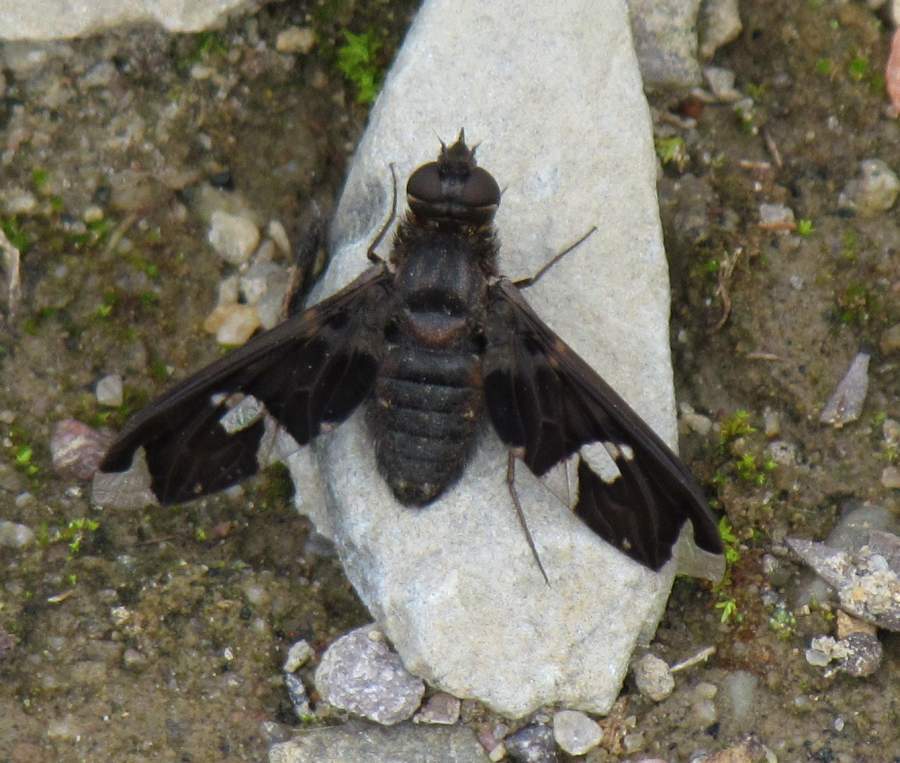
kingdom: Animalia
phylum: Arthropoda
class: Insecta
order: Diptera
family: Bombyliidae
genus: Exoprosopa
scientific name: Exoprosopa decora
